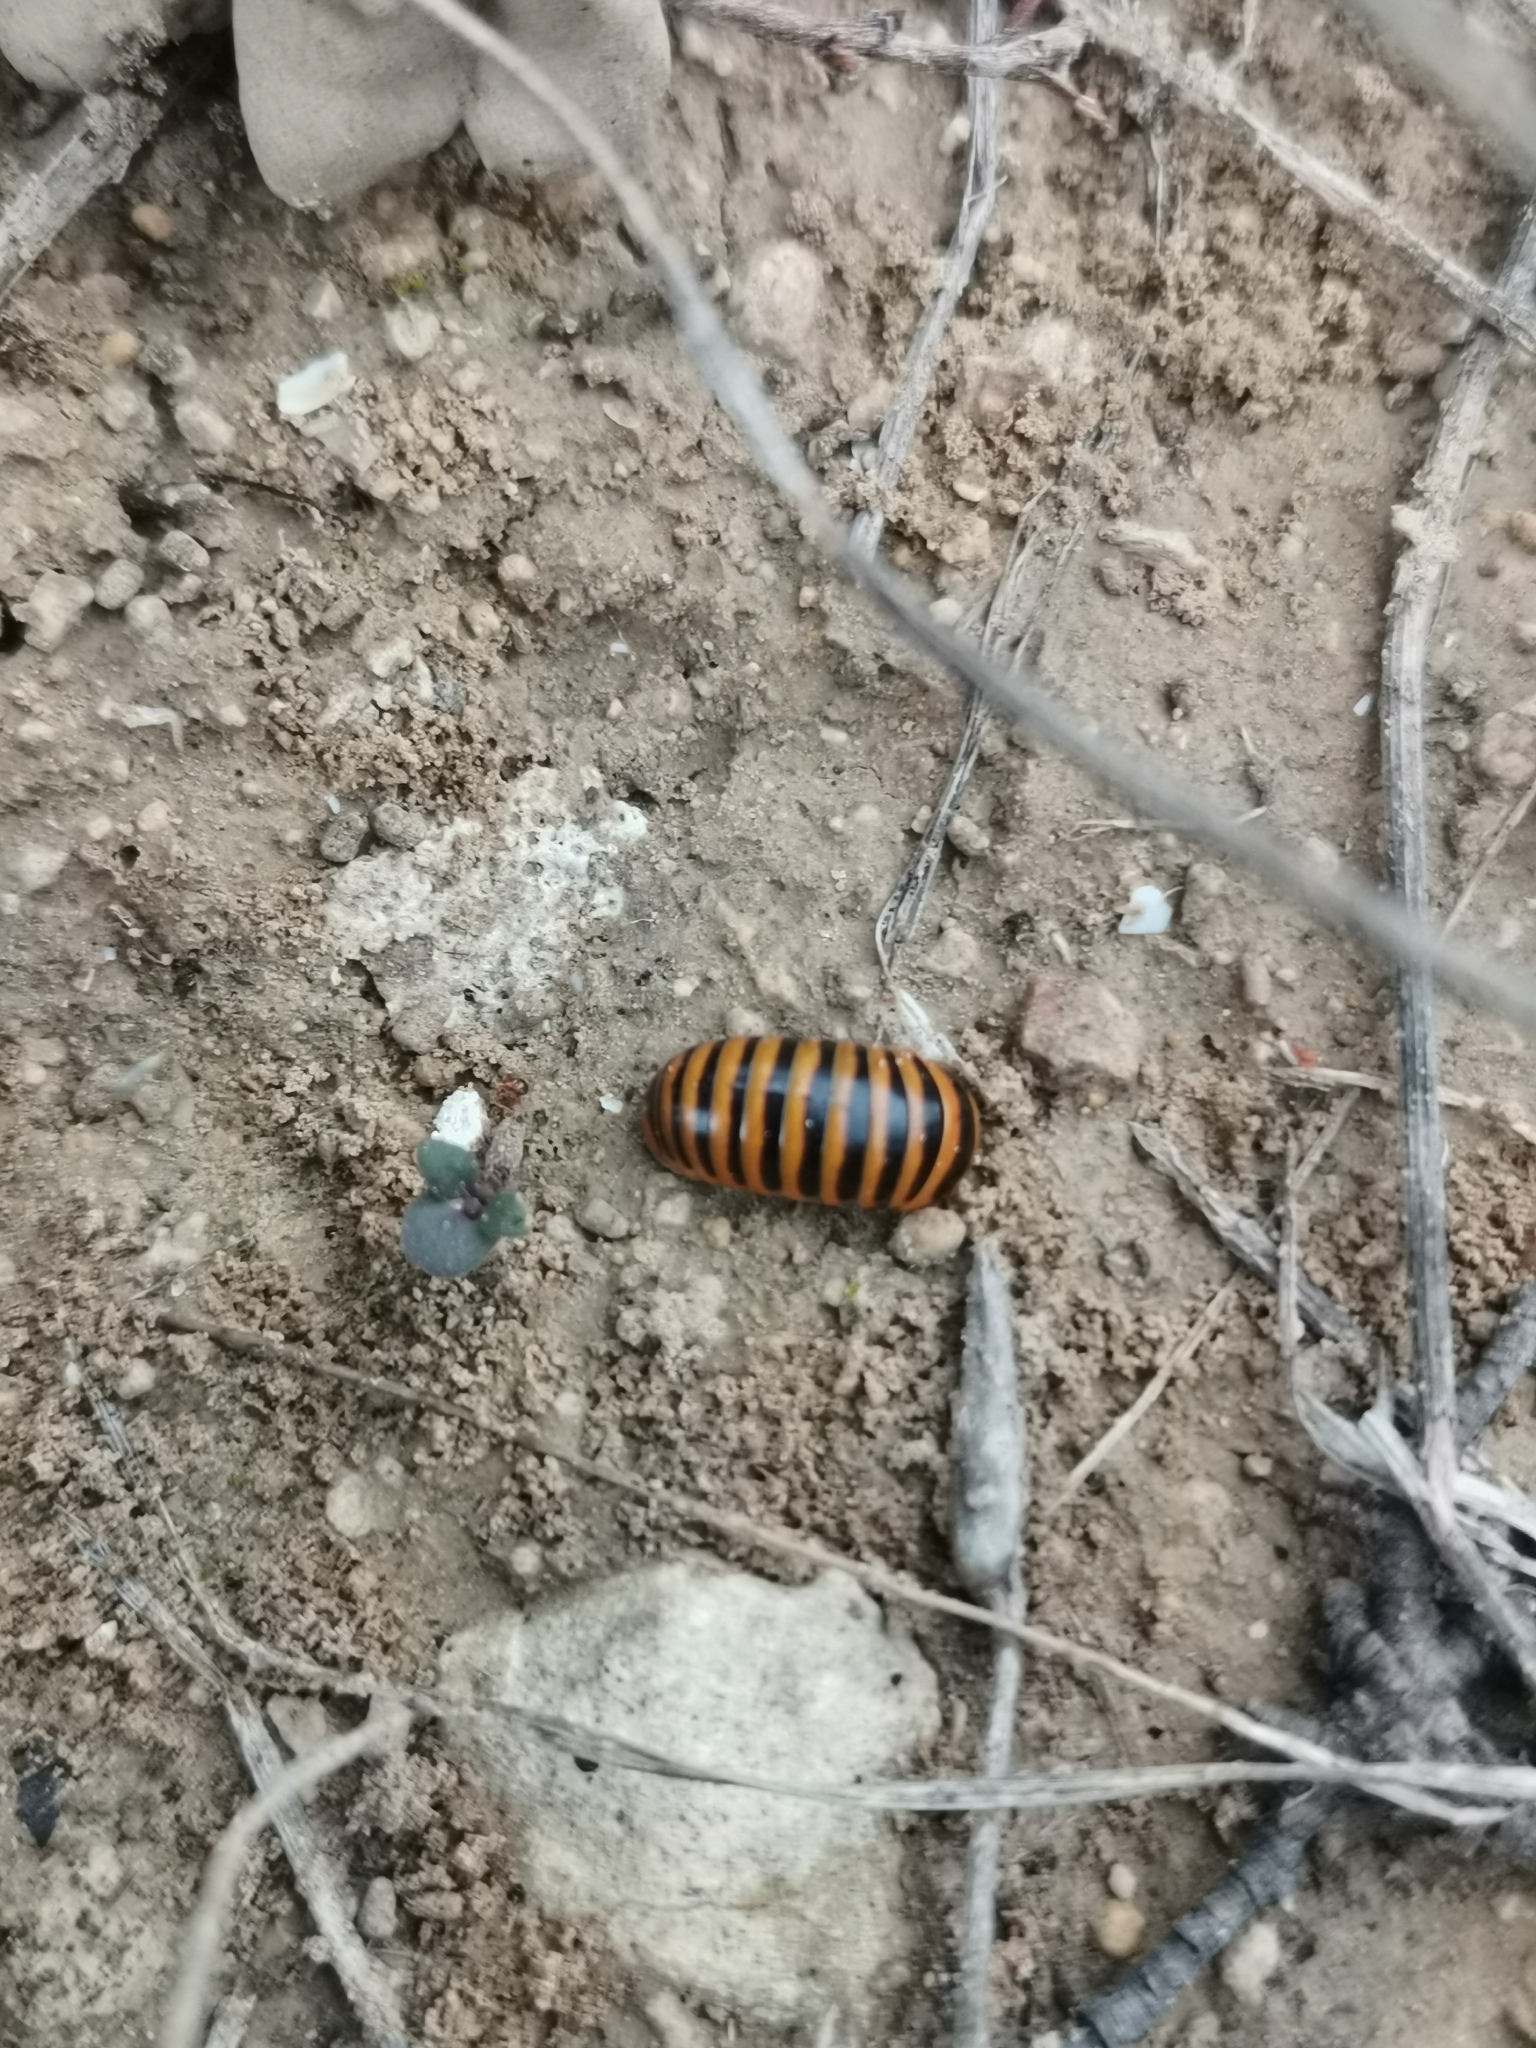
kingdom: Animalia
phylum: Arthropoda
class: Diplopoda
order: Glomerida
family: Glomeridae
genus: Glomeris
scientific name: Glomeris annulata
